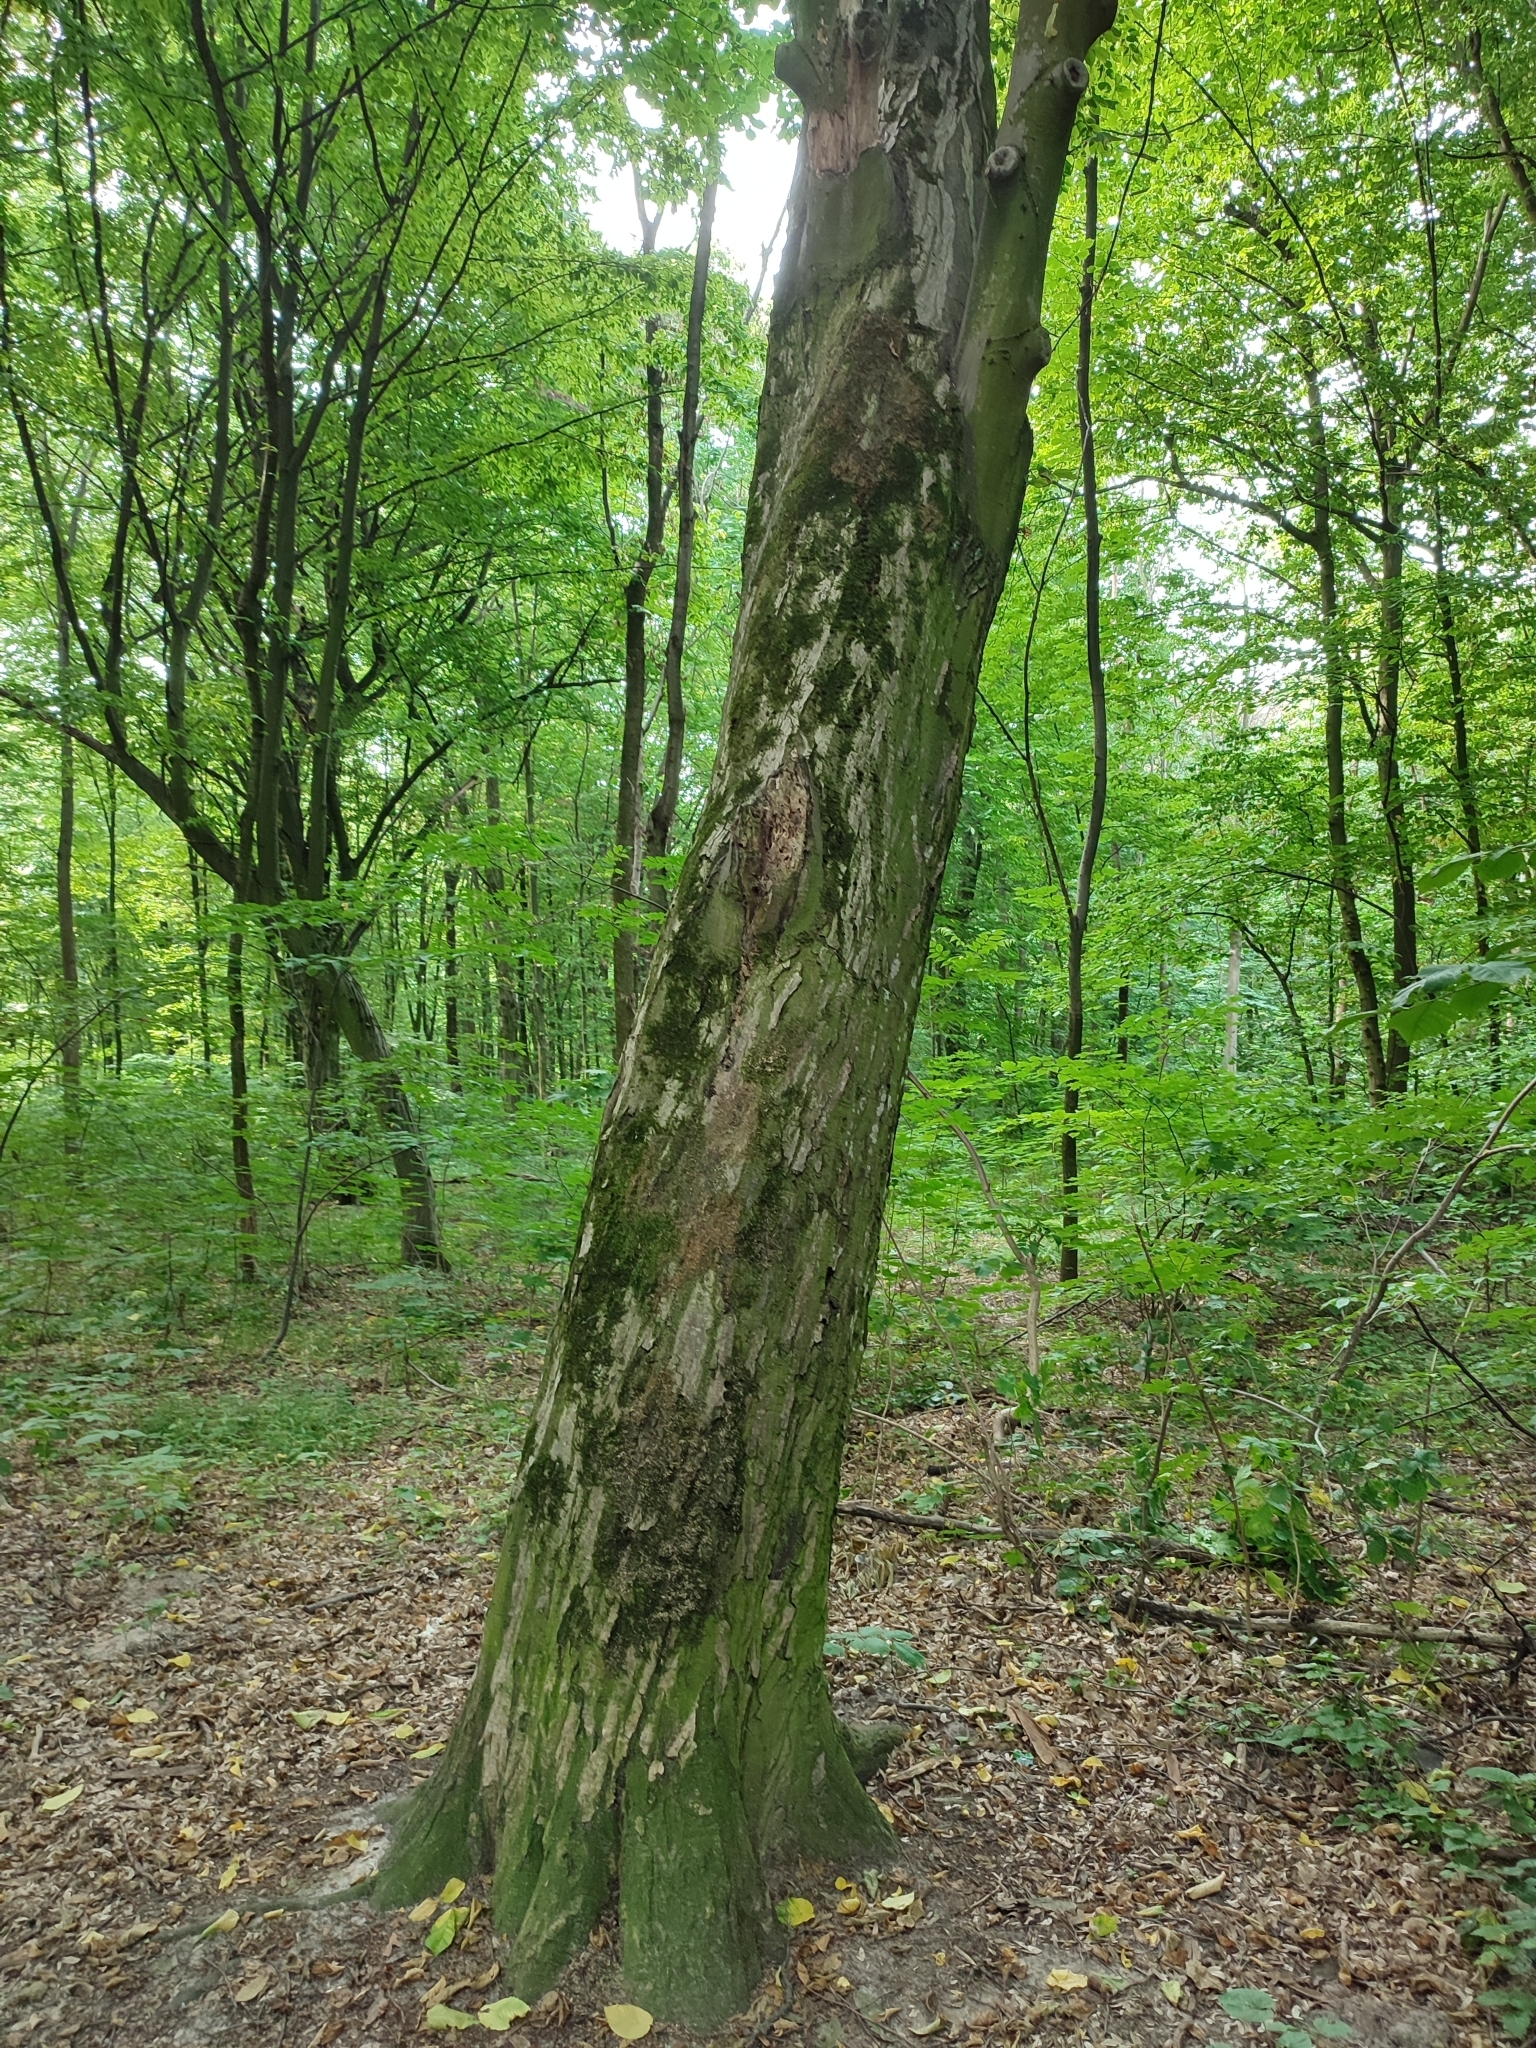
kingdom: Plantae
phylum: Tracheophyta
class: Magnoliopsida
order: Fagales
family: Betulaceae
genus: Carpinus
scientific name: Carpinus betulus
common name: Hornbeam
